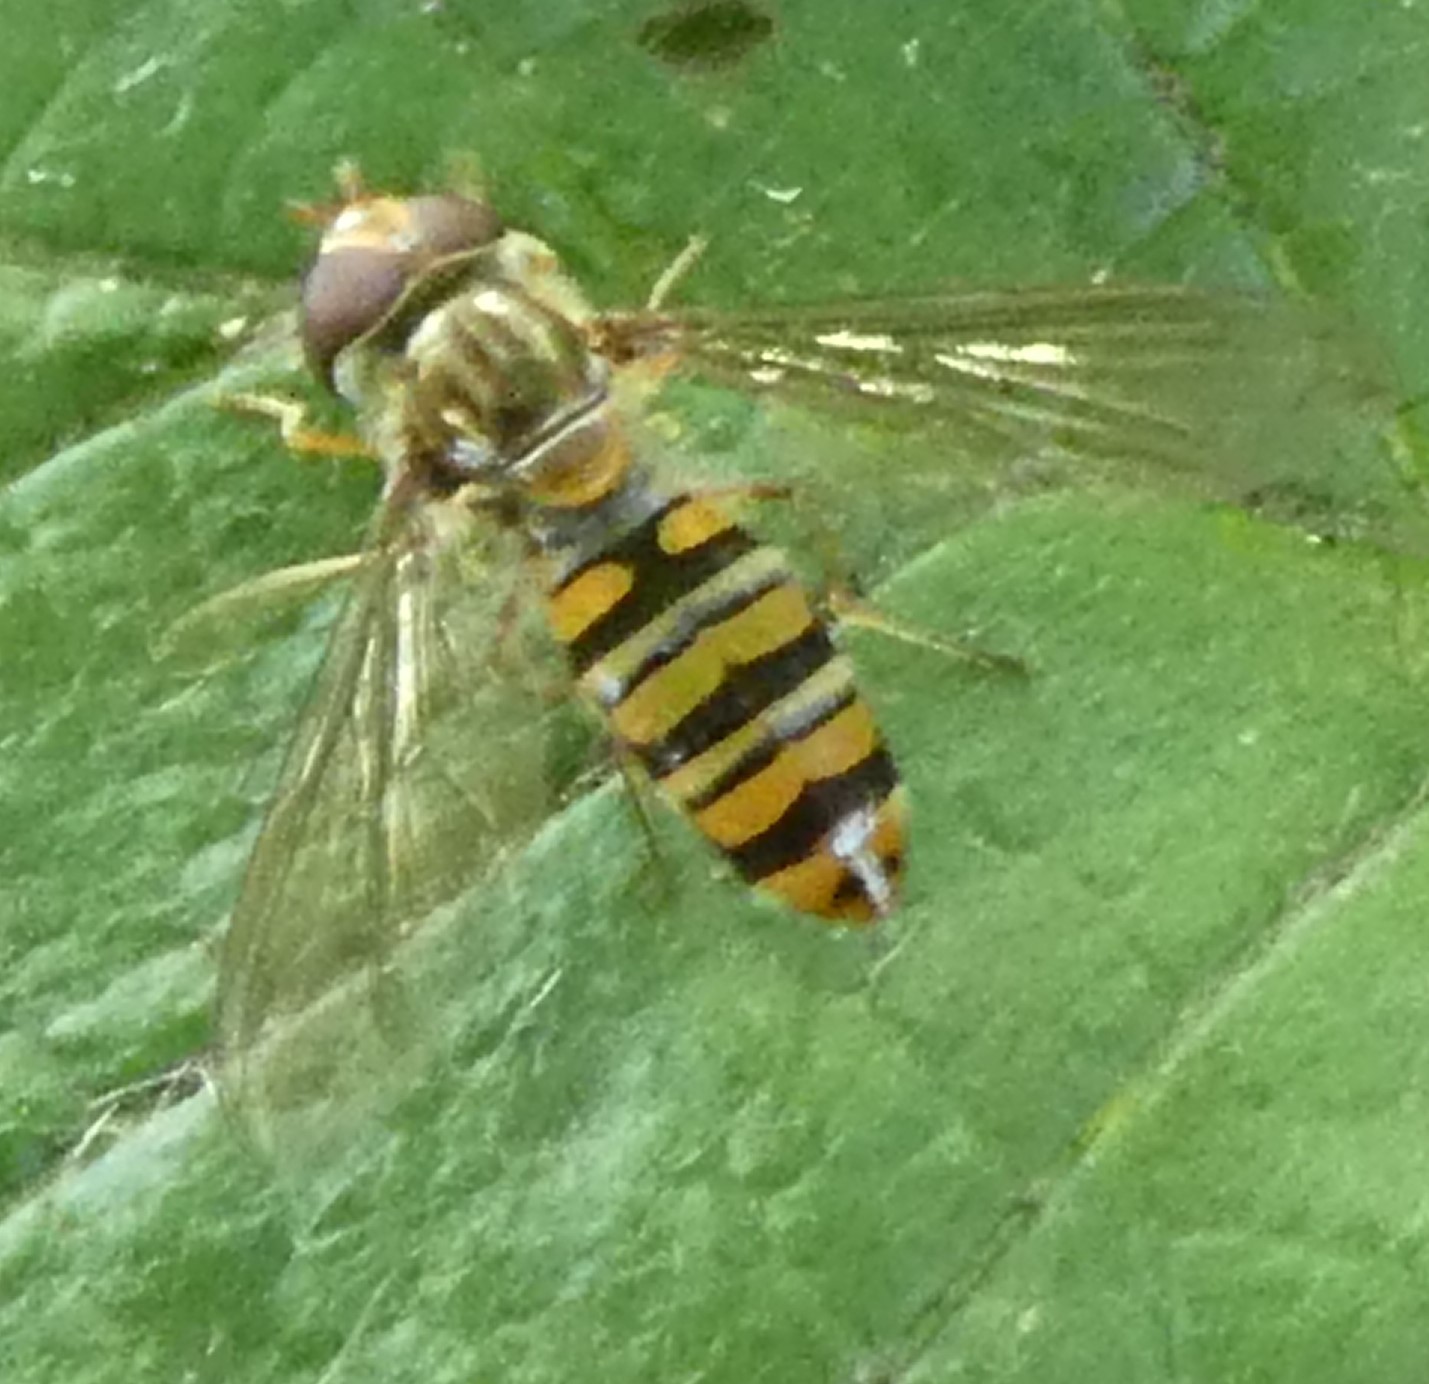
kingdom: Animalia
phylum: Arthropoda
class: Insecta
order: Diptera
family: Syrphidae
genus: Episyrphus
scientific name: Episyrphus balteatus
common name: Marmalade hoverfly
